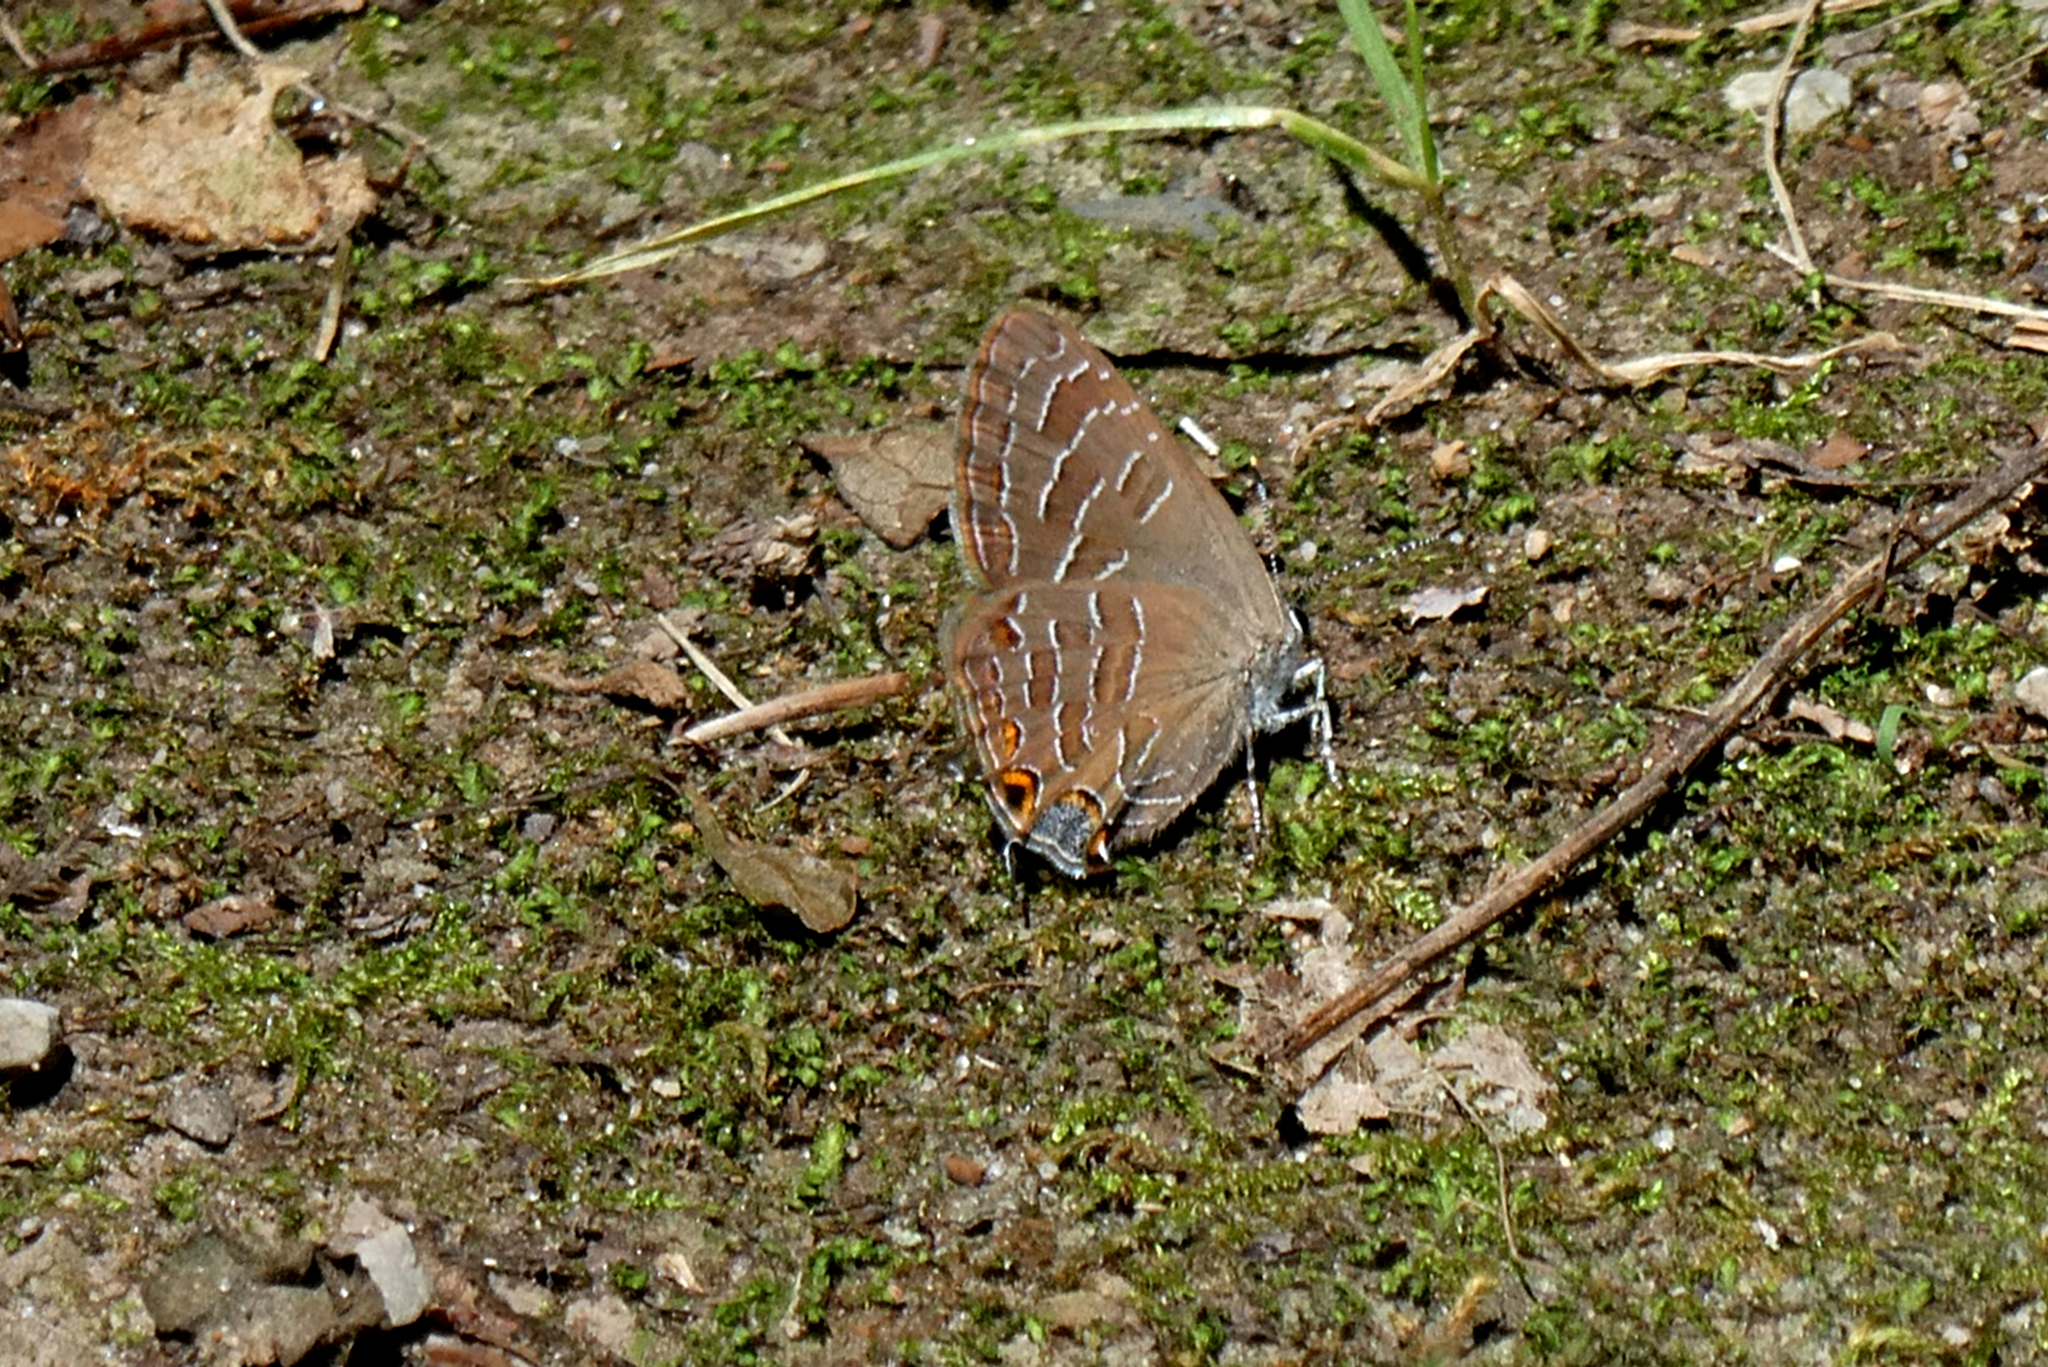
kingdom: Animalia
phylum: Arthropoda
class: Insecta
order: Lepidoptera
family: Lycaenidae
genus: Satyrium
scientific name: Satyrium liparops
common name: Striped hairstreak
